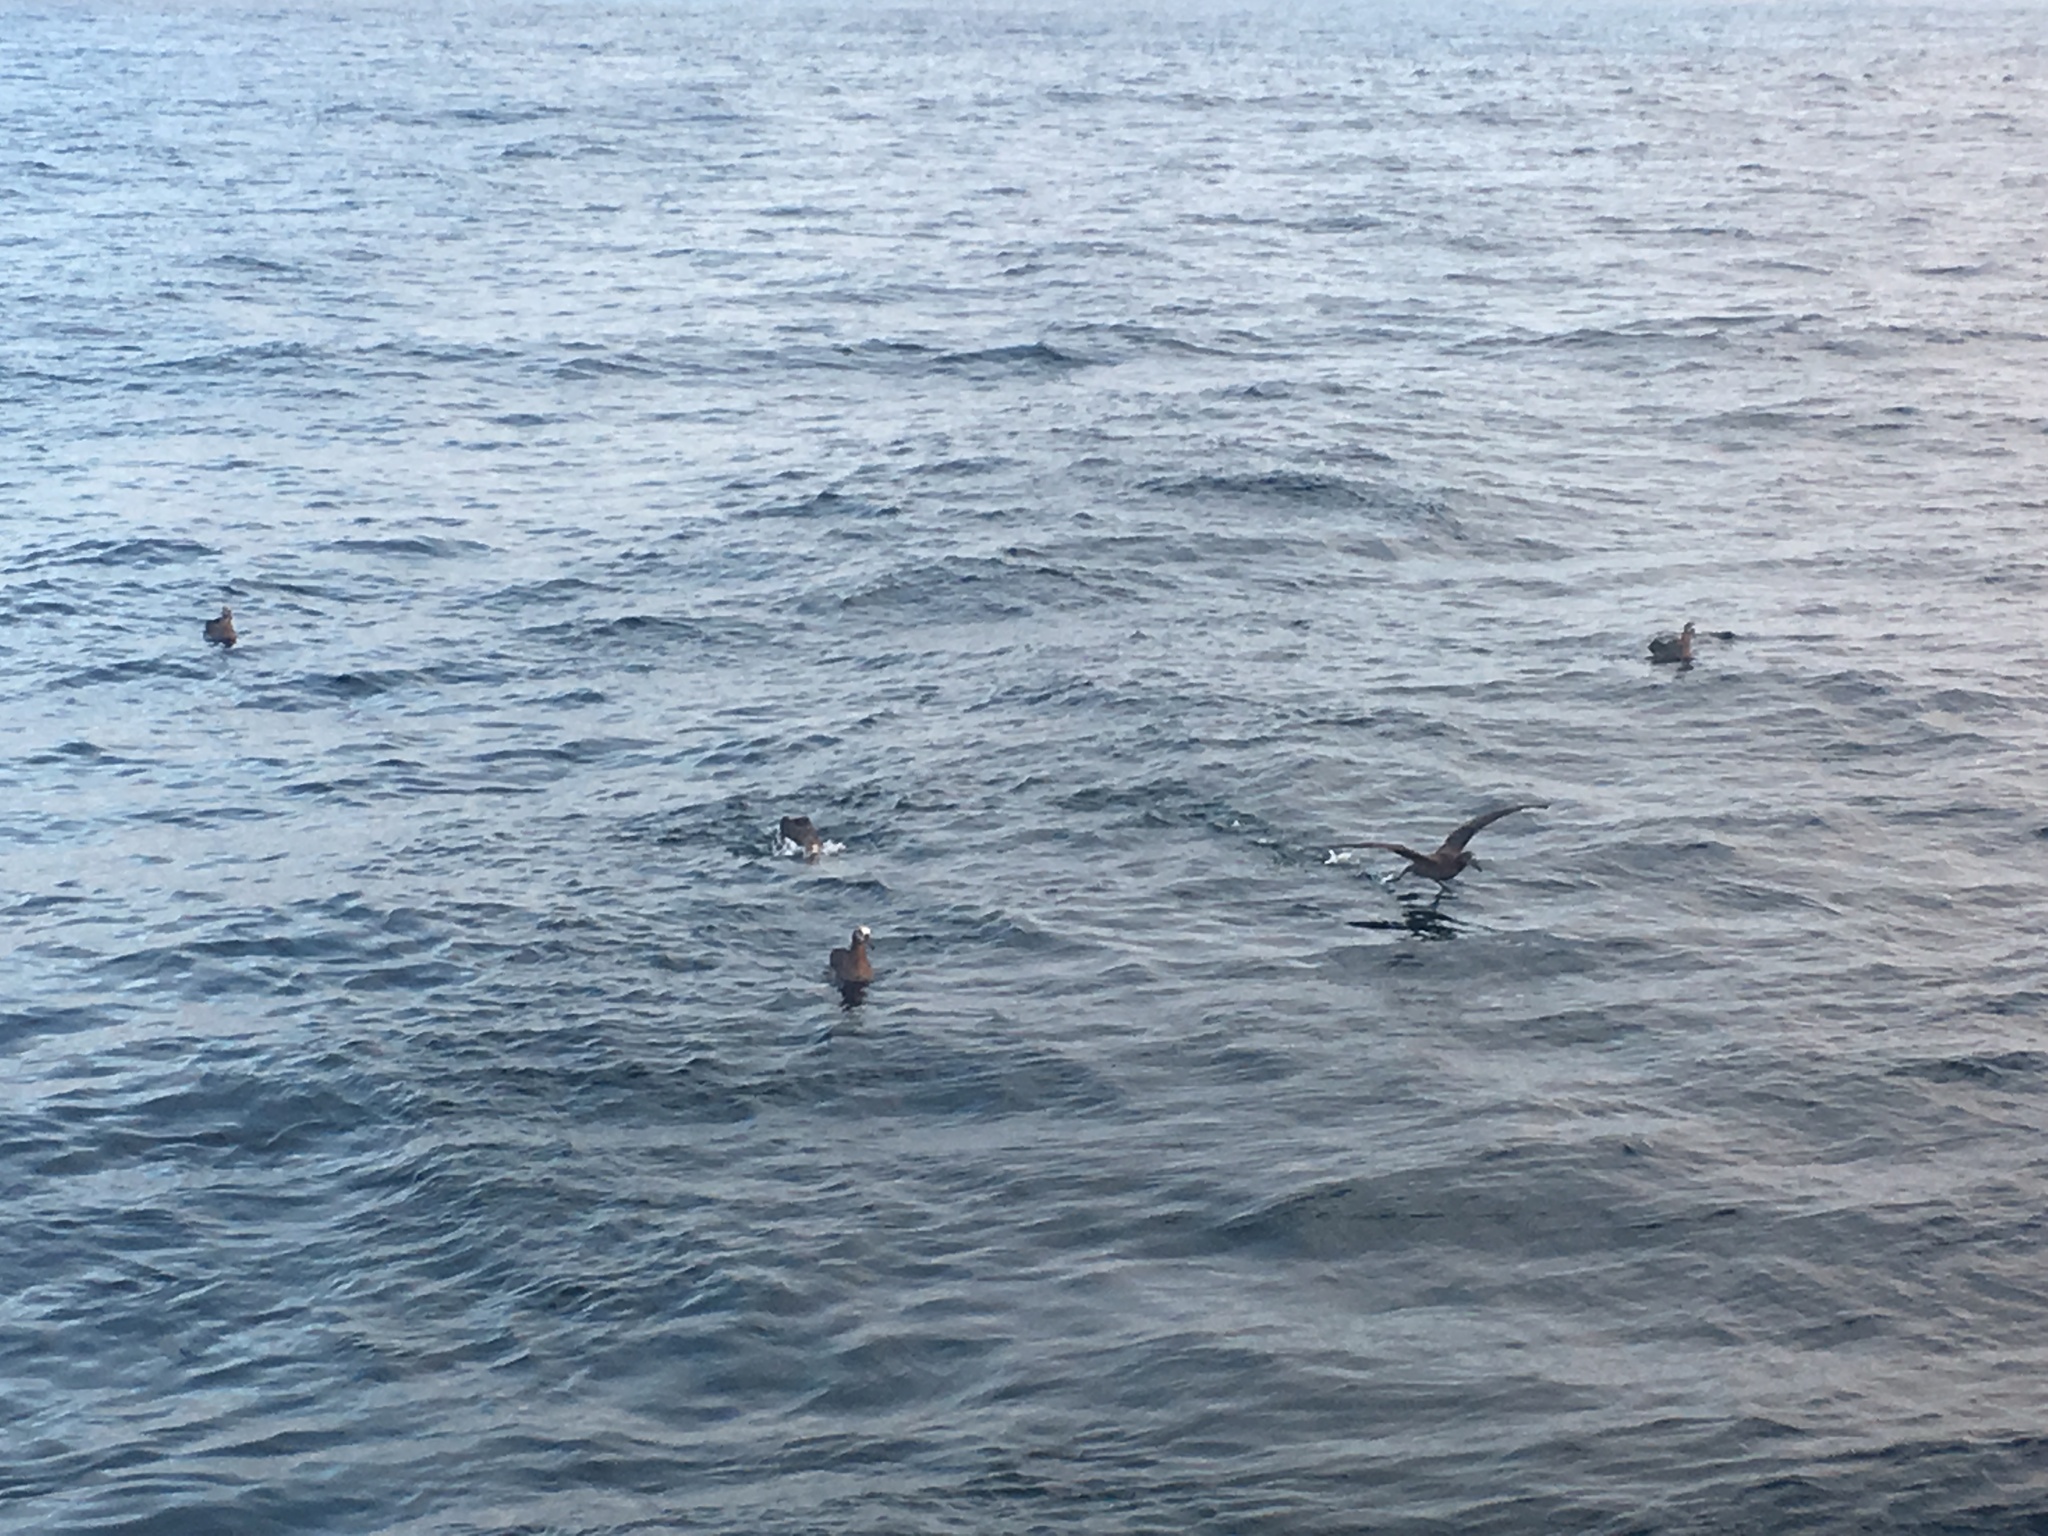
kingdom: Animalia
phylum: Chordata
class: Aves
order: Procellariiformes
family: Diomedeidae
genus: Phoebastria
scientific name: Phoebastria nigripes
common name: Black-footed albatross
